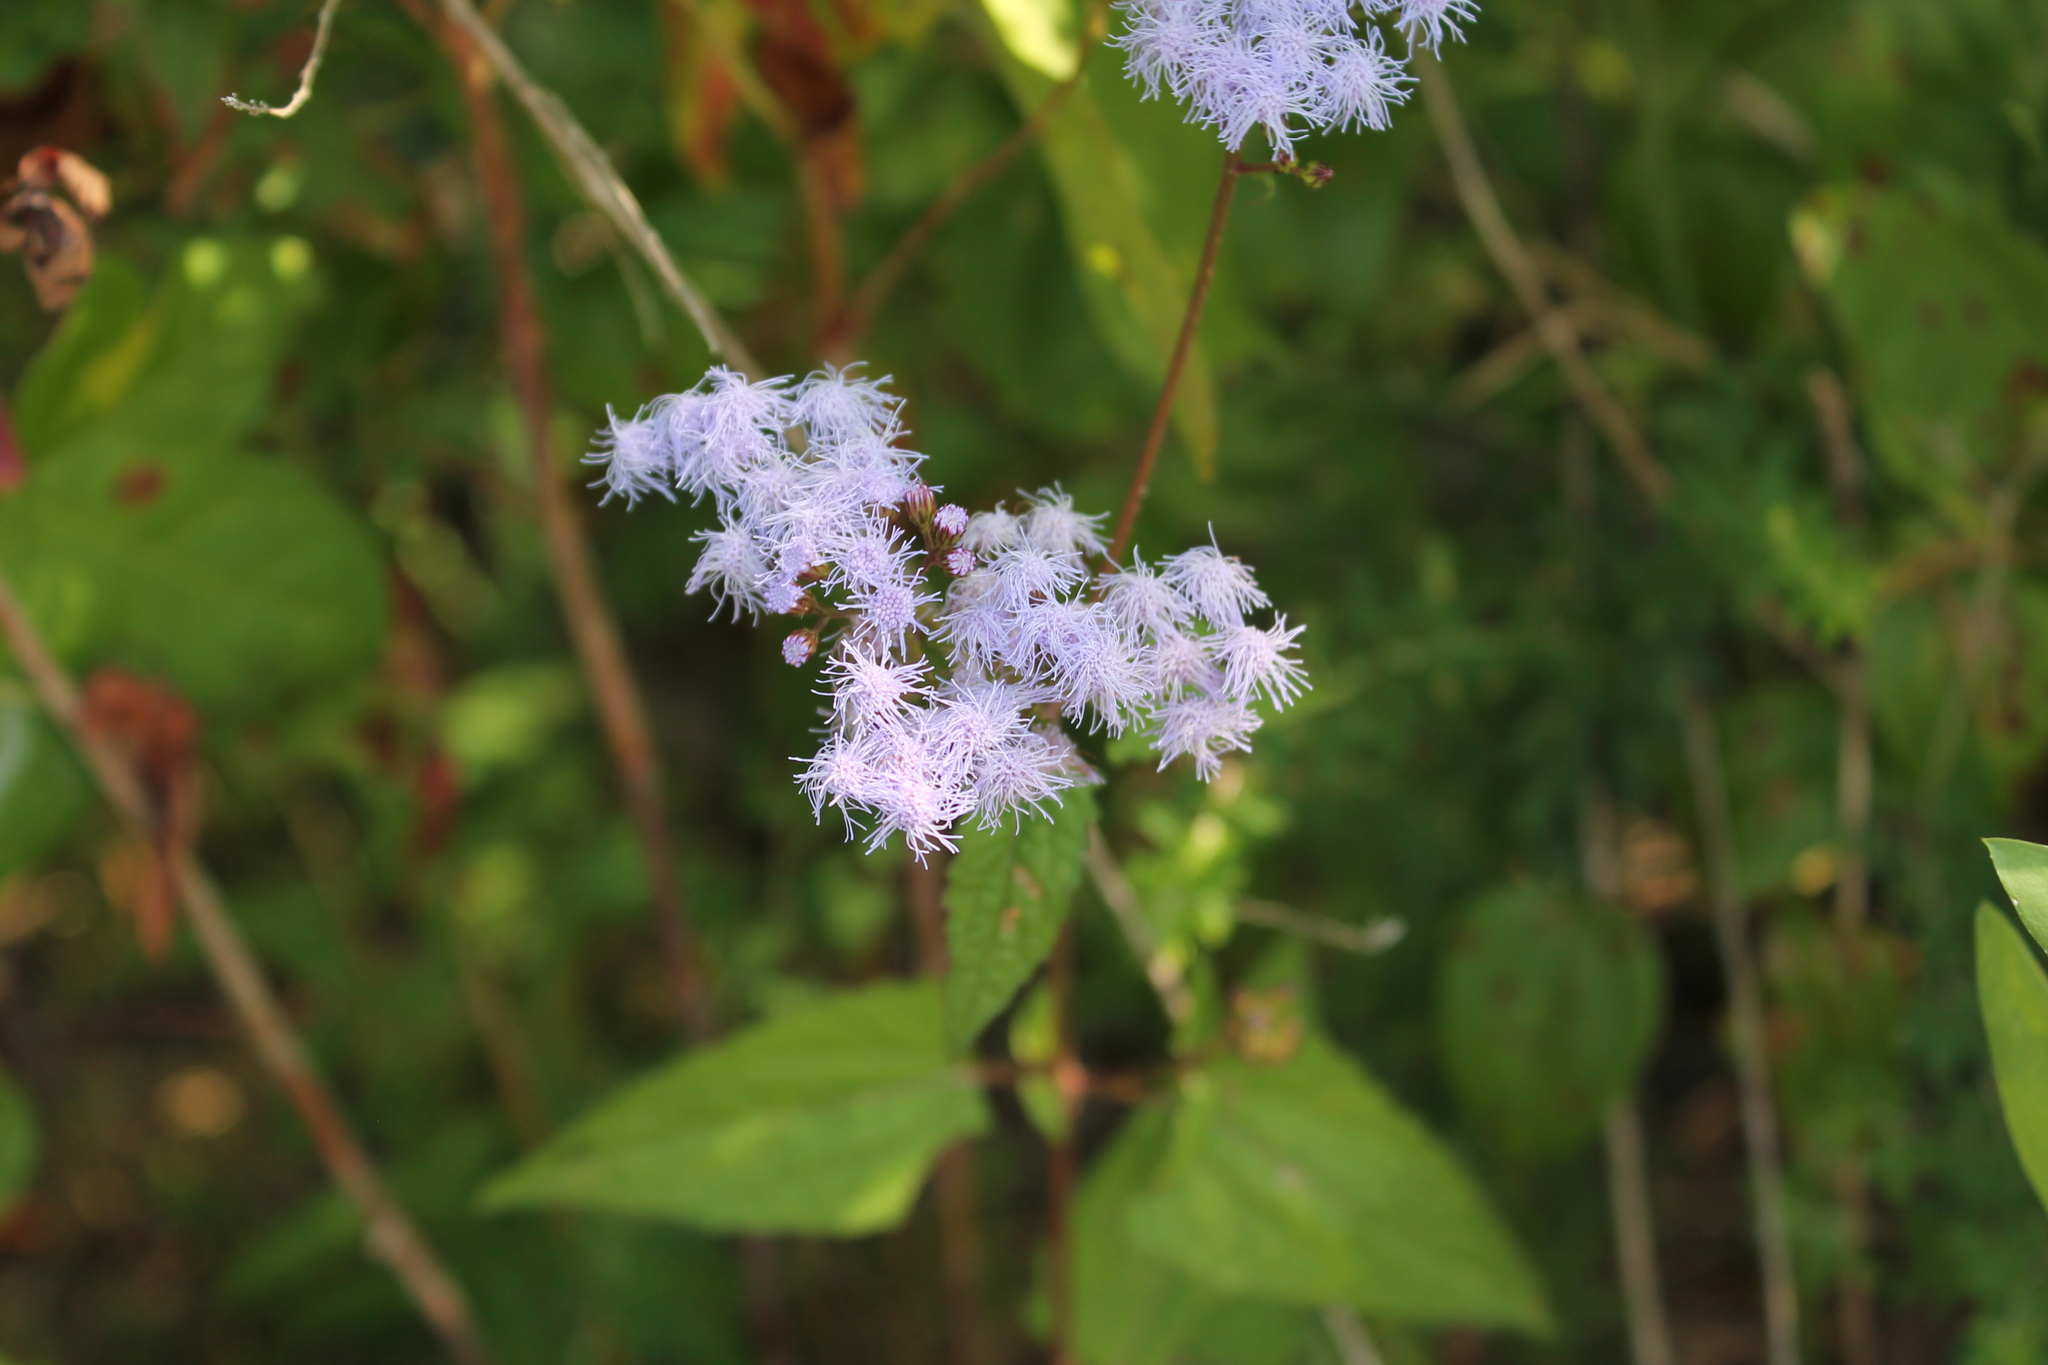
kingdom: Plantae
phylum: Tracheophyta
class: Magnoliopsida
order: Asterales
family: Asteraceae
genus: Conoclinium
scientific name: Conoclinium coelestinum
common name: Blue mistflower
